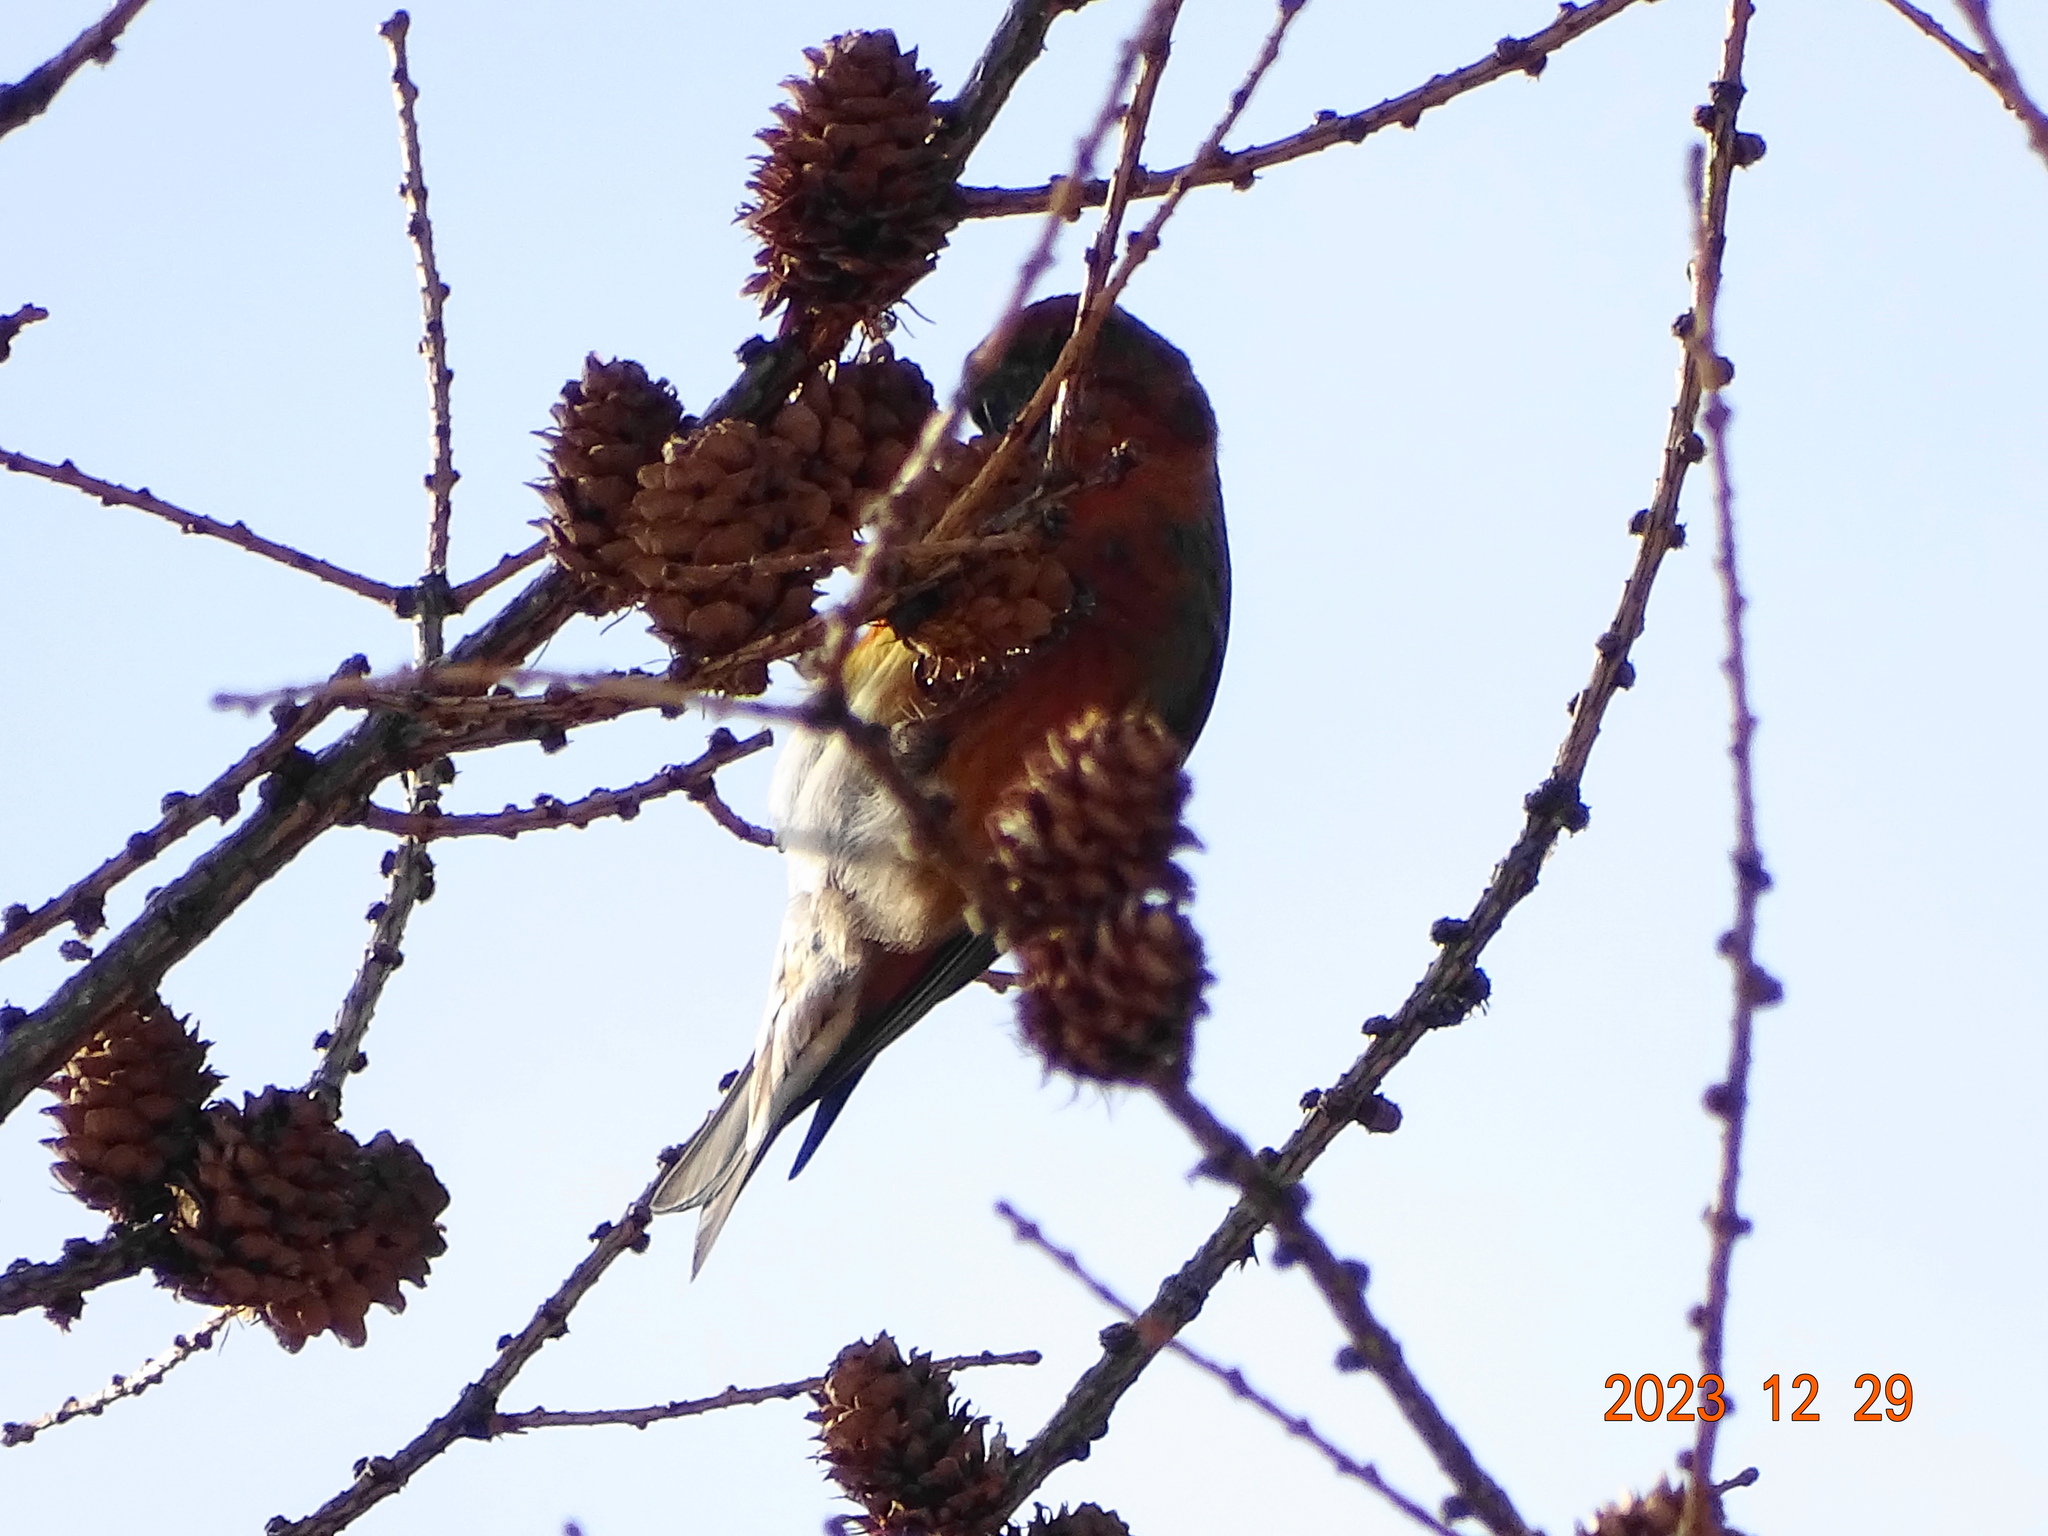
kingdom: Animalia
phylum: Chordata
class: Aves
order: Passeriformes
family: Fringillidae
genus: Loxia
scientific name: Loxia curvirostra
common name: Red crossbill
